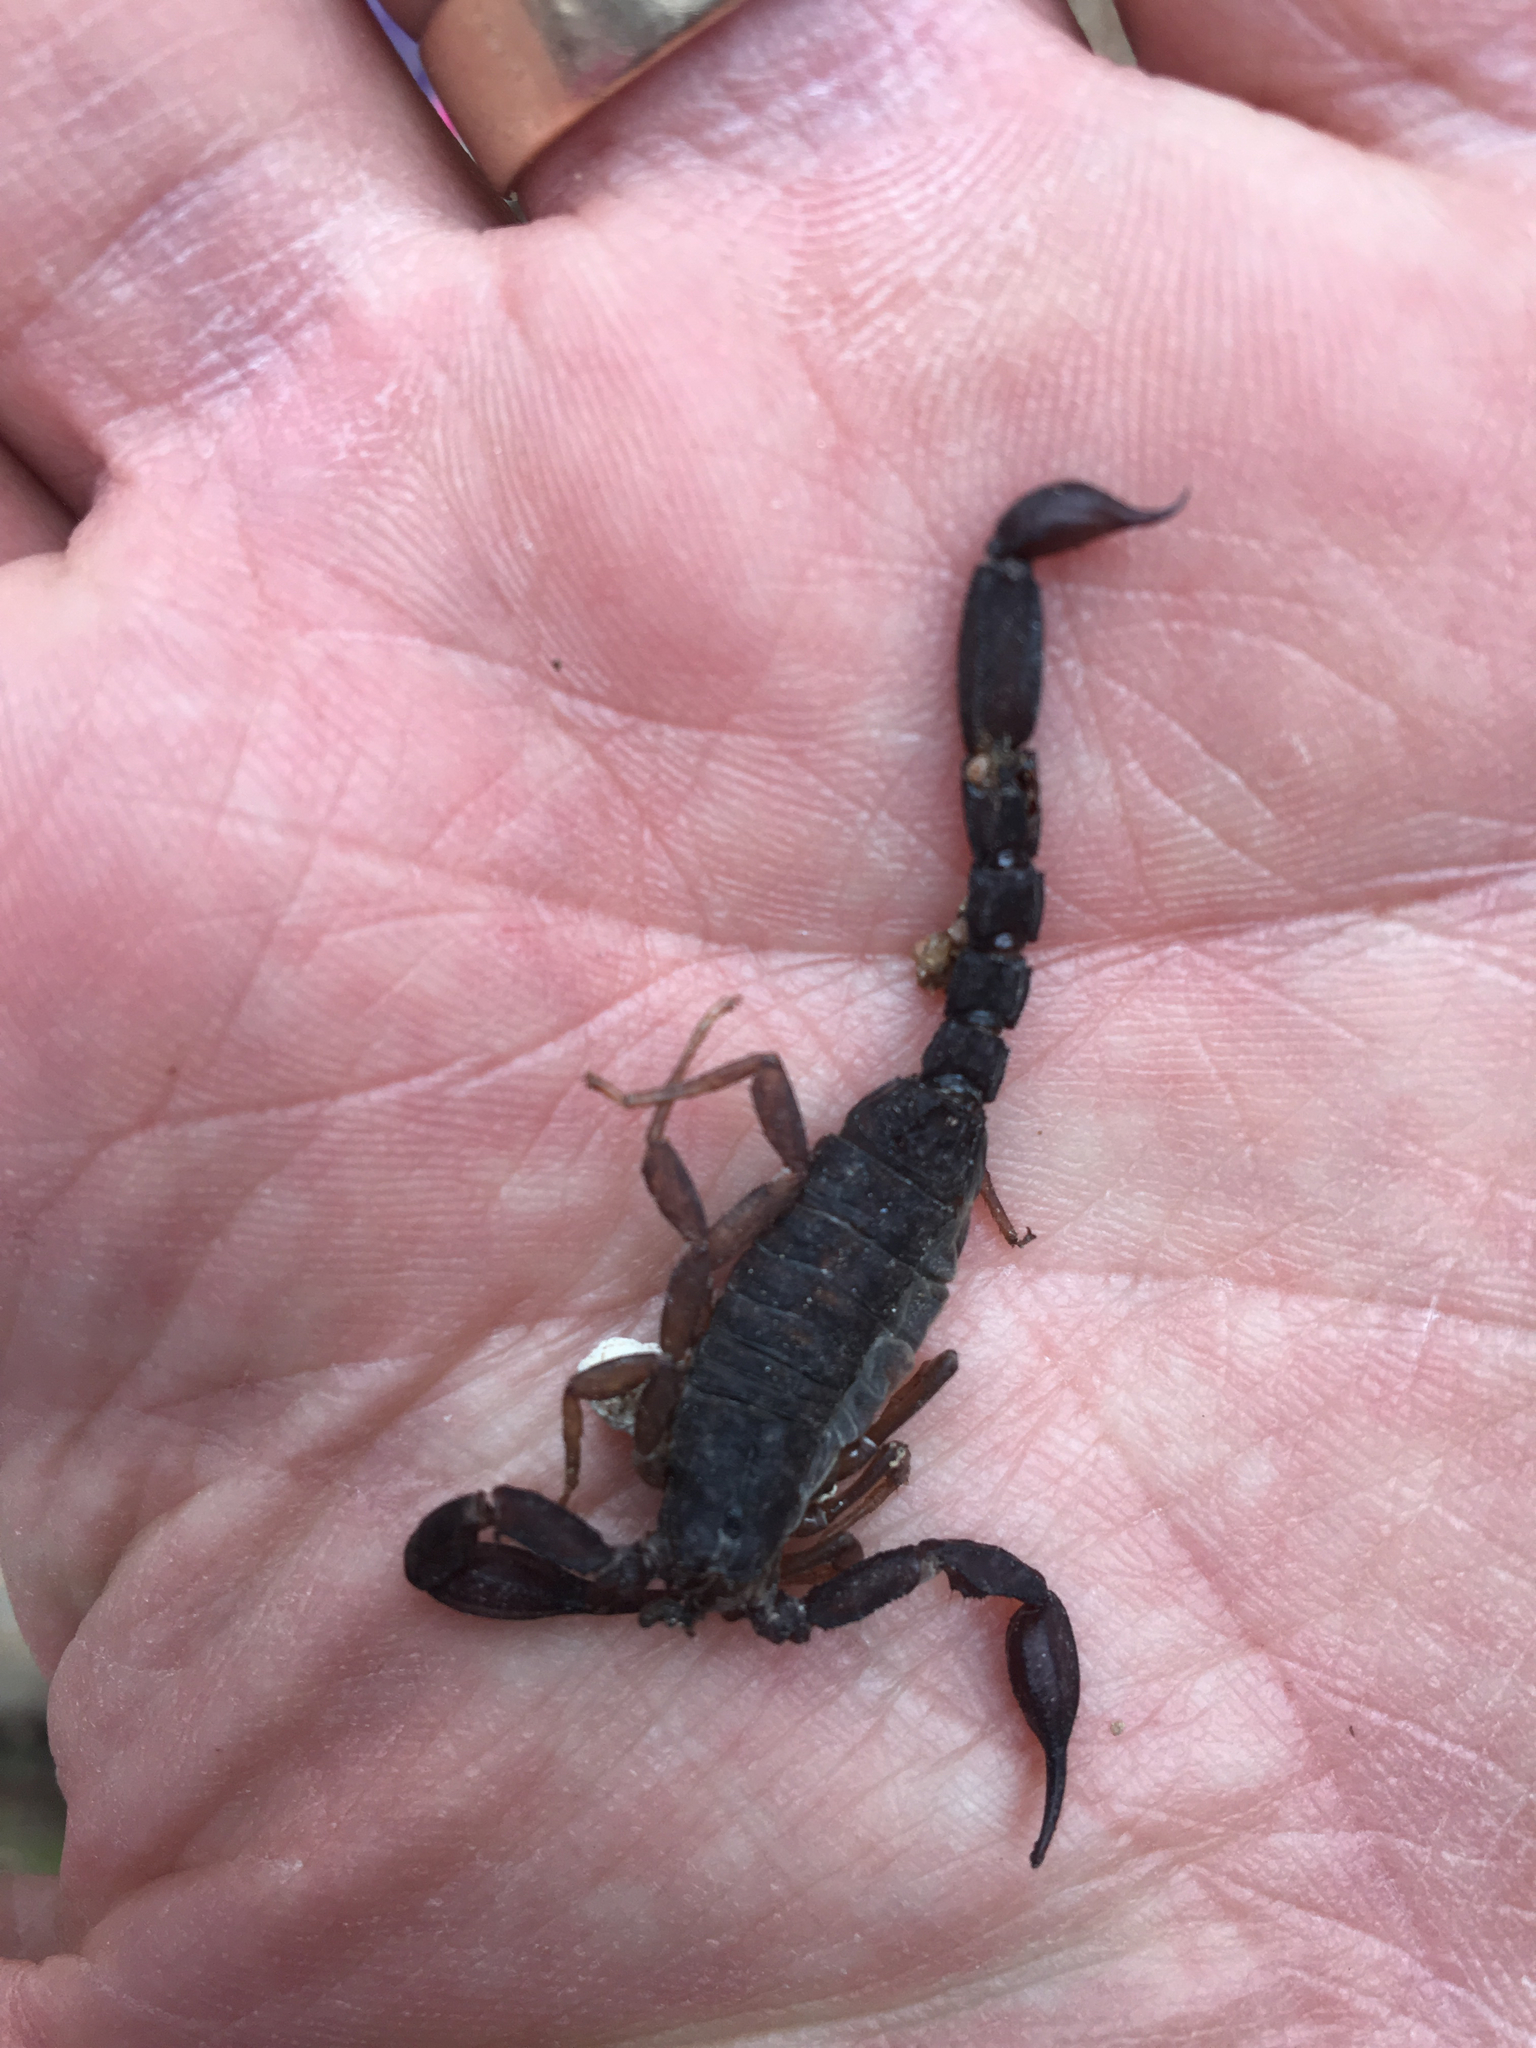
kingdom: Animalia
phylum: Arthropoda
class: Arachnida
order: Scorpiones
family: Vaejovidae
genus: Pseudouroctonus
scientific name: Pseudouroctonus reddelli
